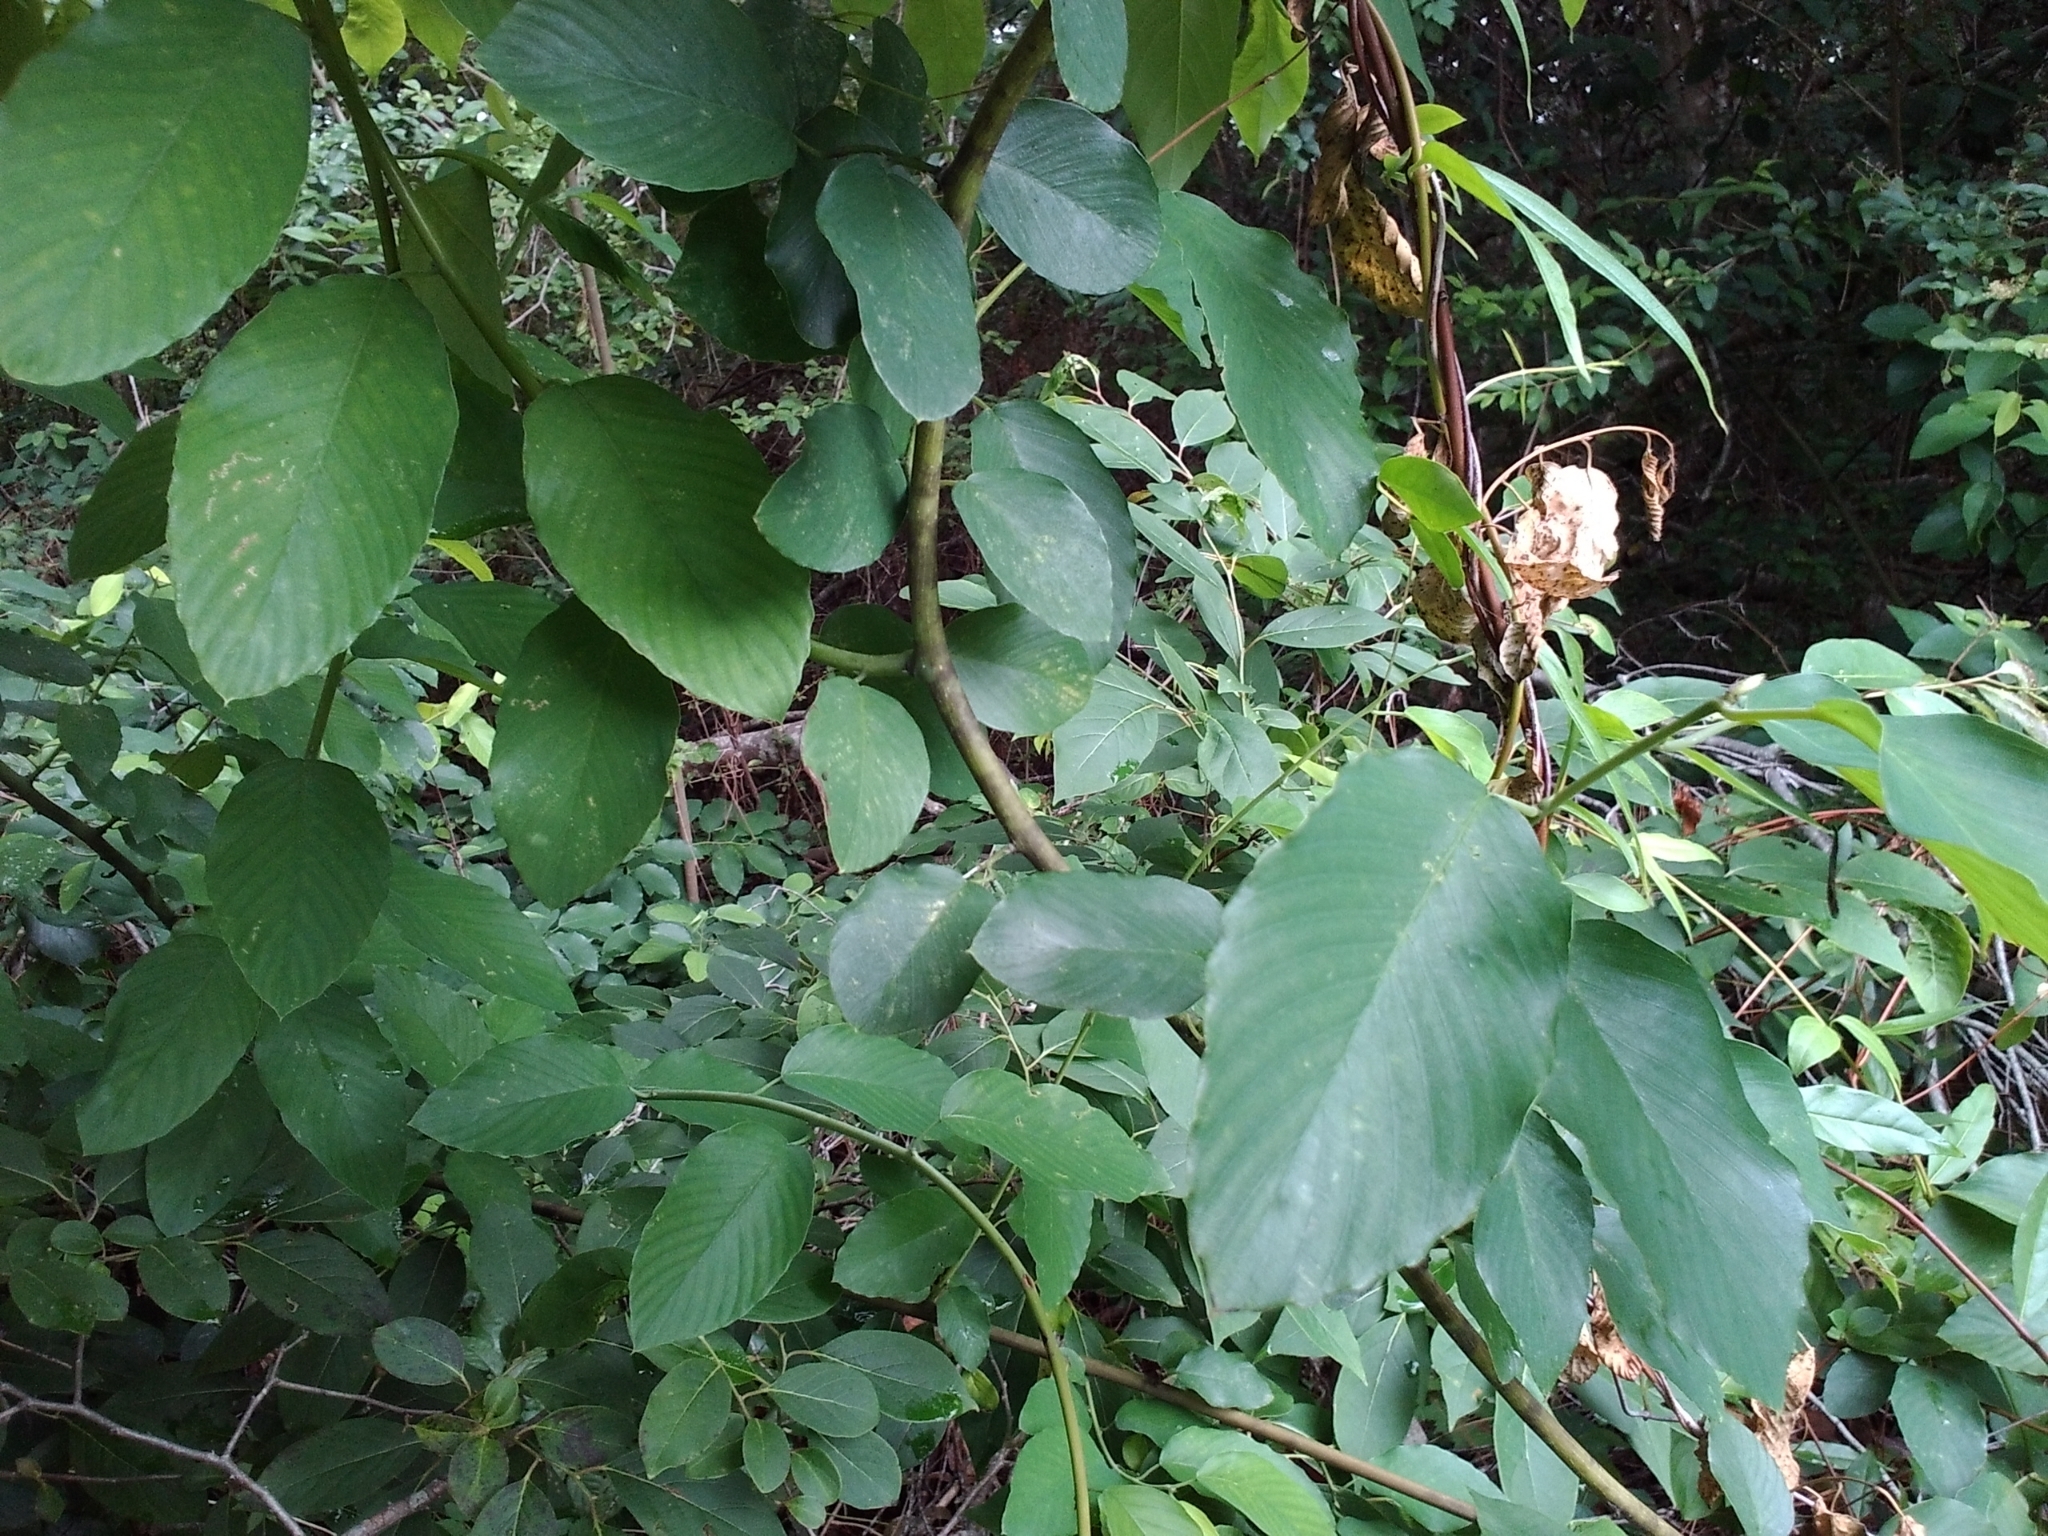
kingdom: Plantae
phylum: Tracheophyta
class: Magnoliopsida
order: Rosales
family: Rhamnaceae
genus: Berchemia
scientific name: Berchemia scandens
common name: Supplejack
